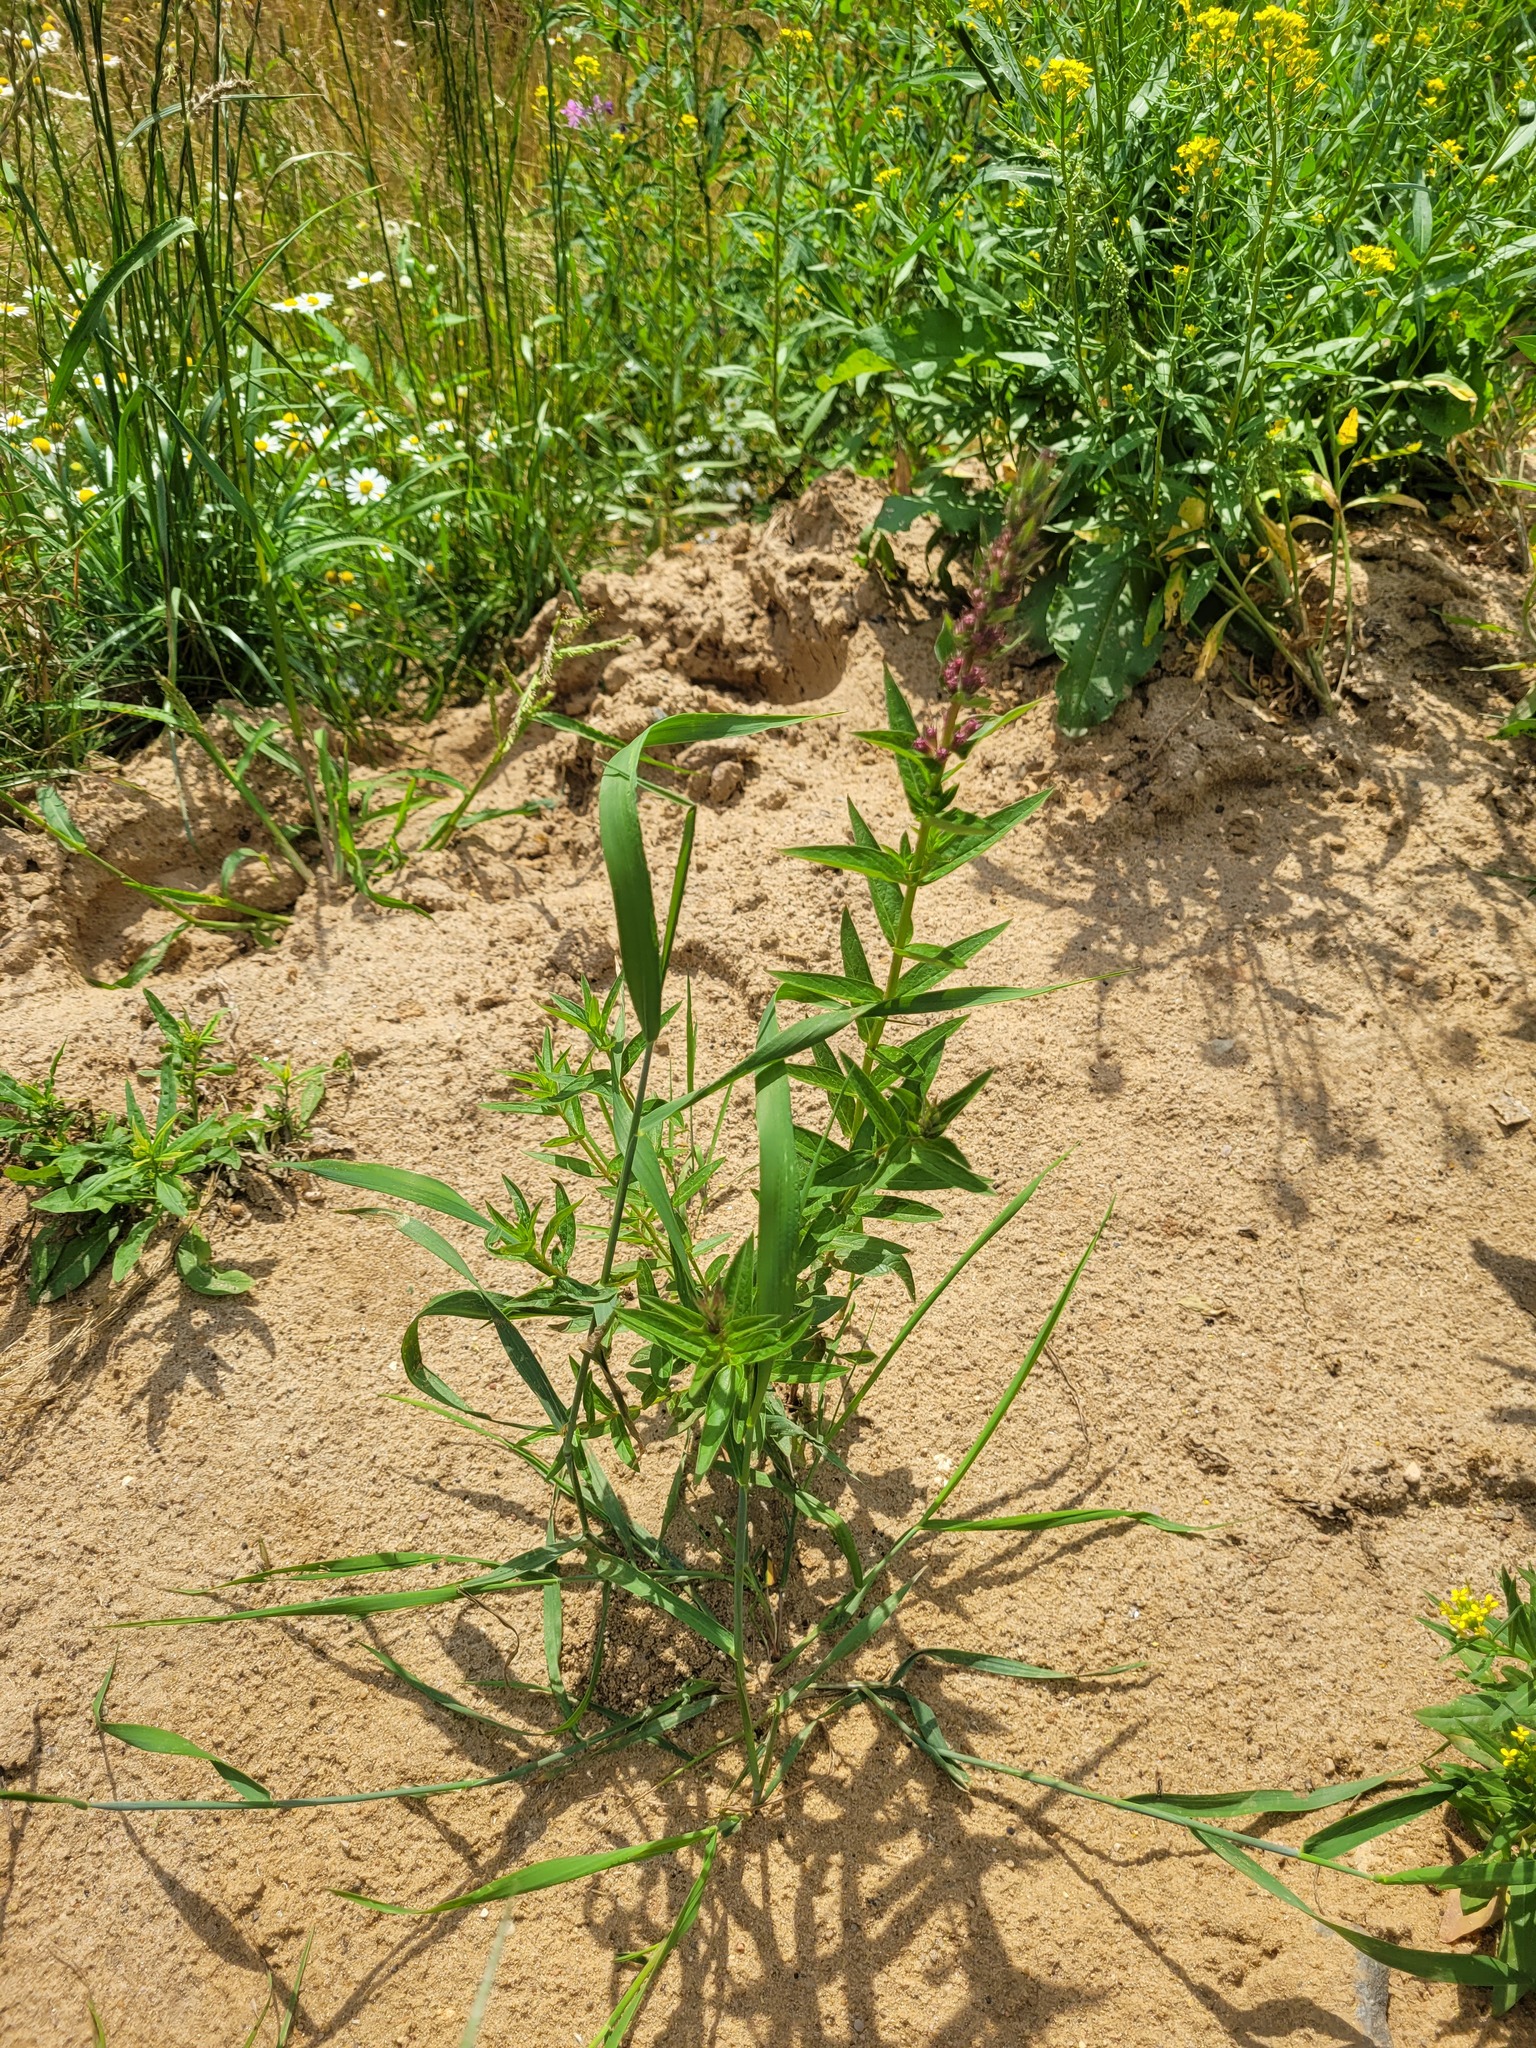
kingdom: Plantae
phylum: Tracheophyta
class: Magnoliopsida
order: Myrtales
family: Lythraceae
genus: Lythrum
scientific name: Lythrum salicaria
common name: Purple loosestrife
